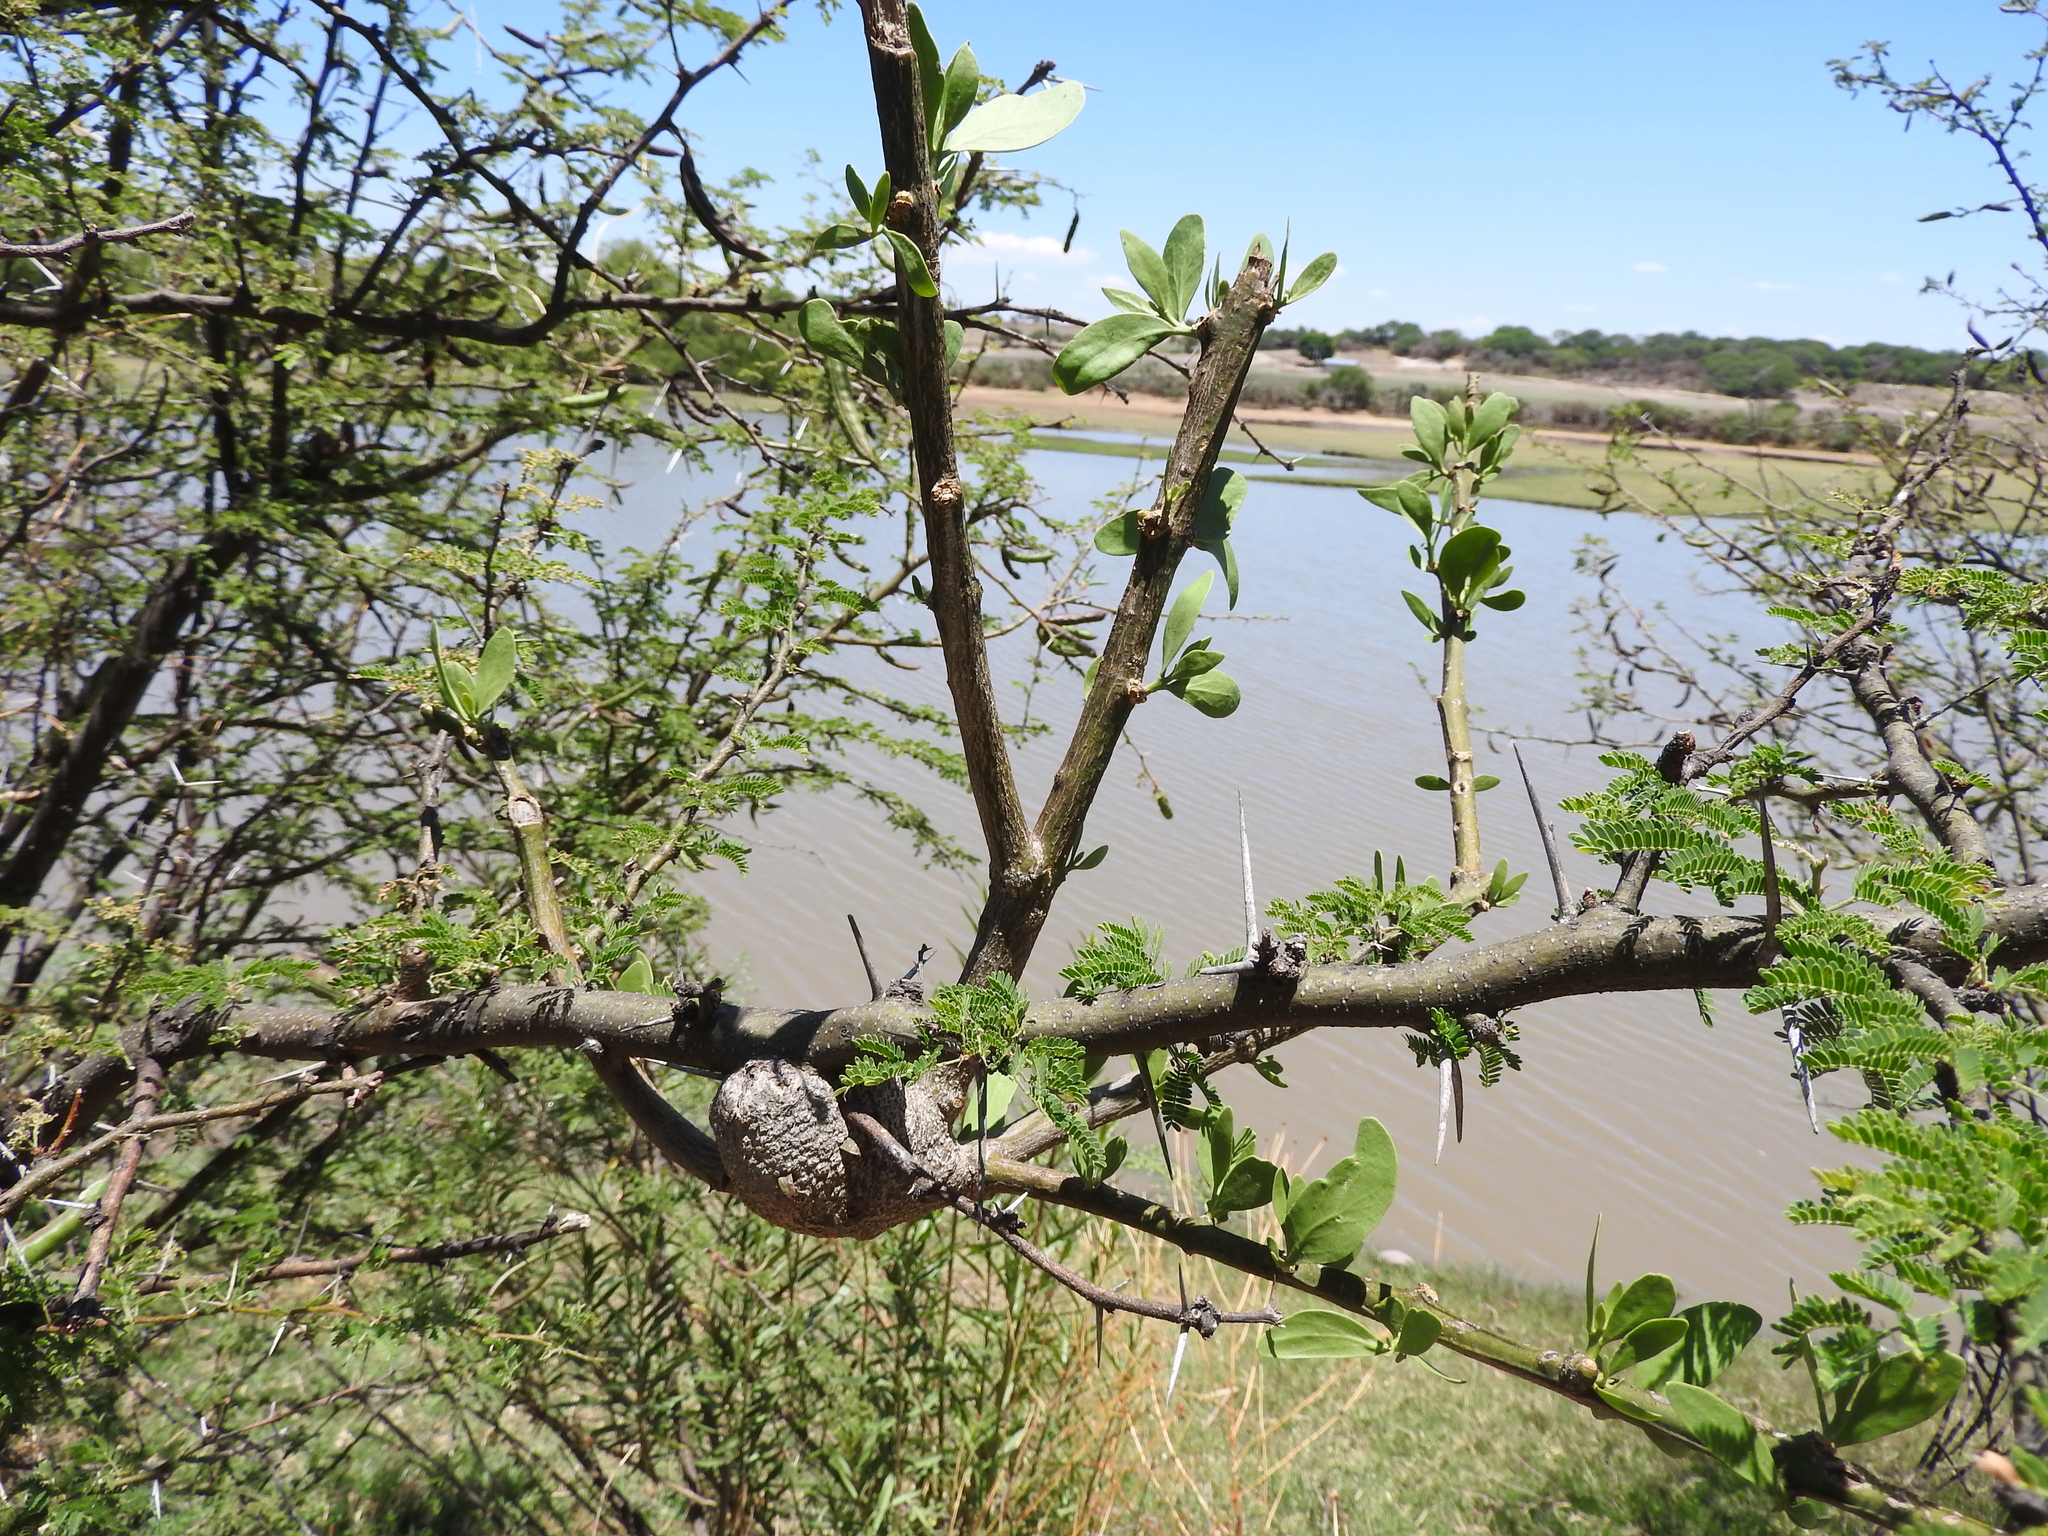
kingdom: Plantae
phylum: Tracheophyta
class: Magnoliopsida
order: Santalales
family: Loranthaceae
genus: Psittacanthus
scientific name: Psittacanthus calyculatus
